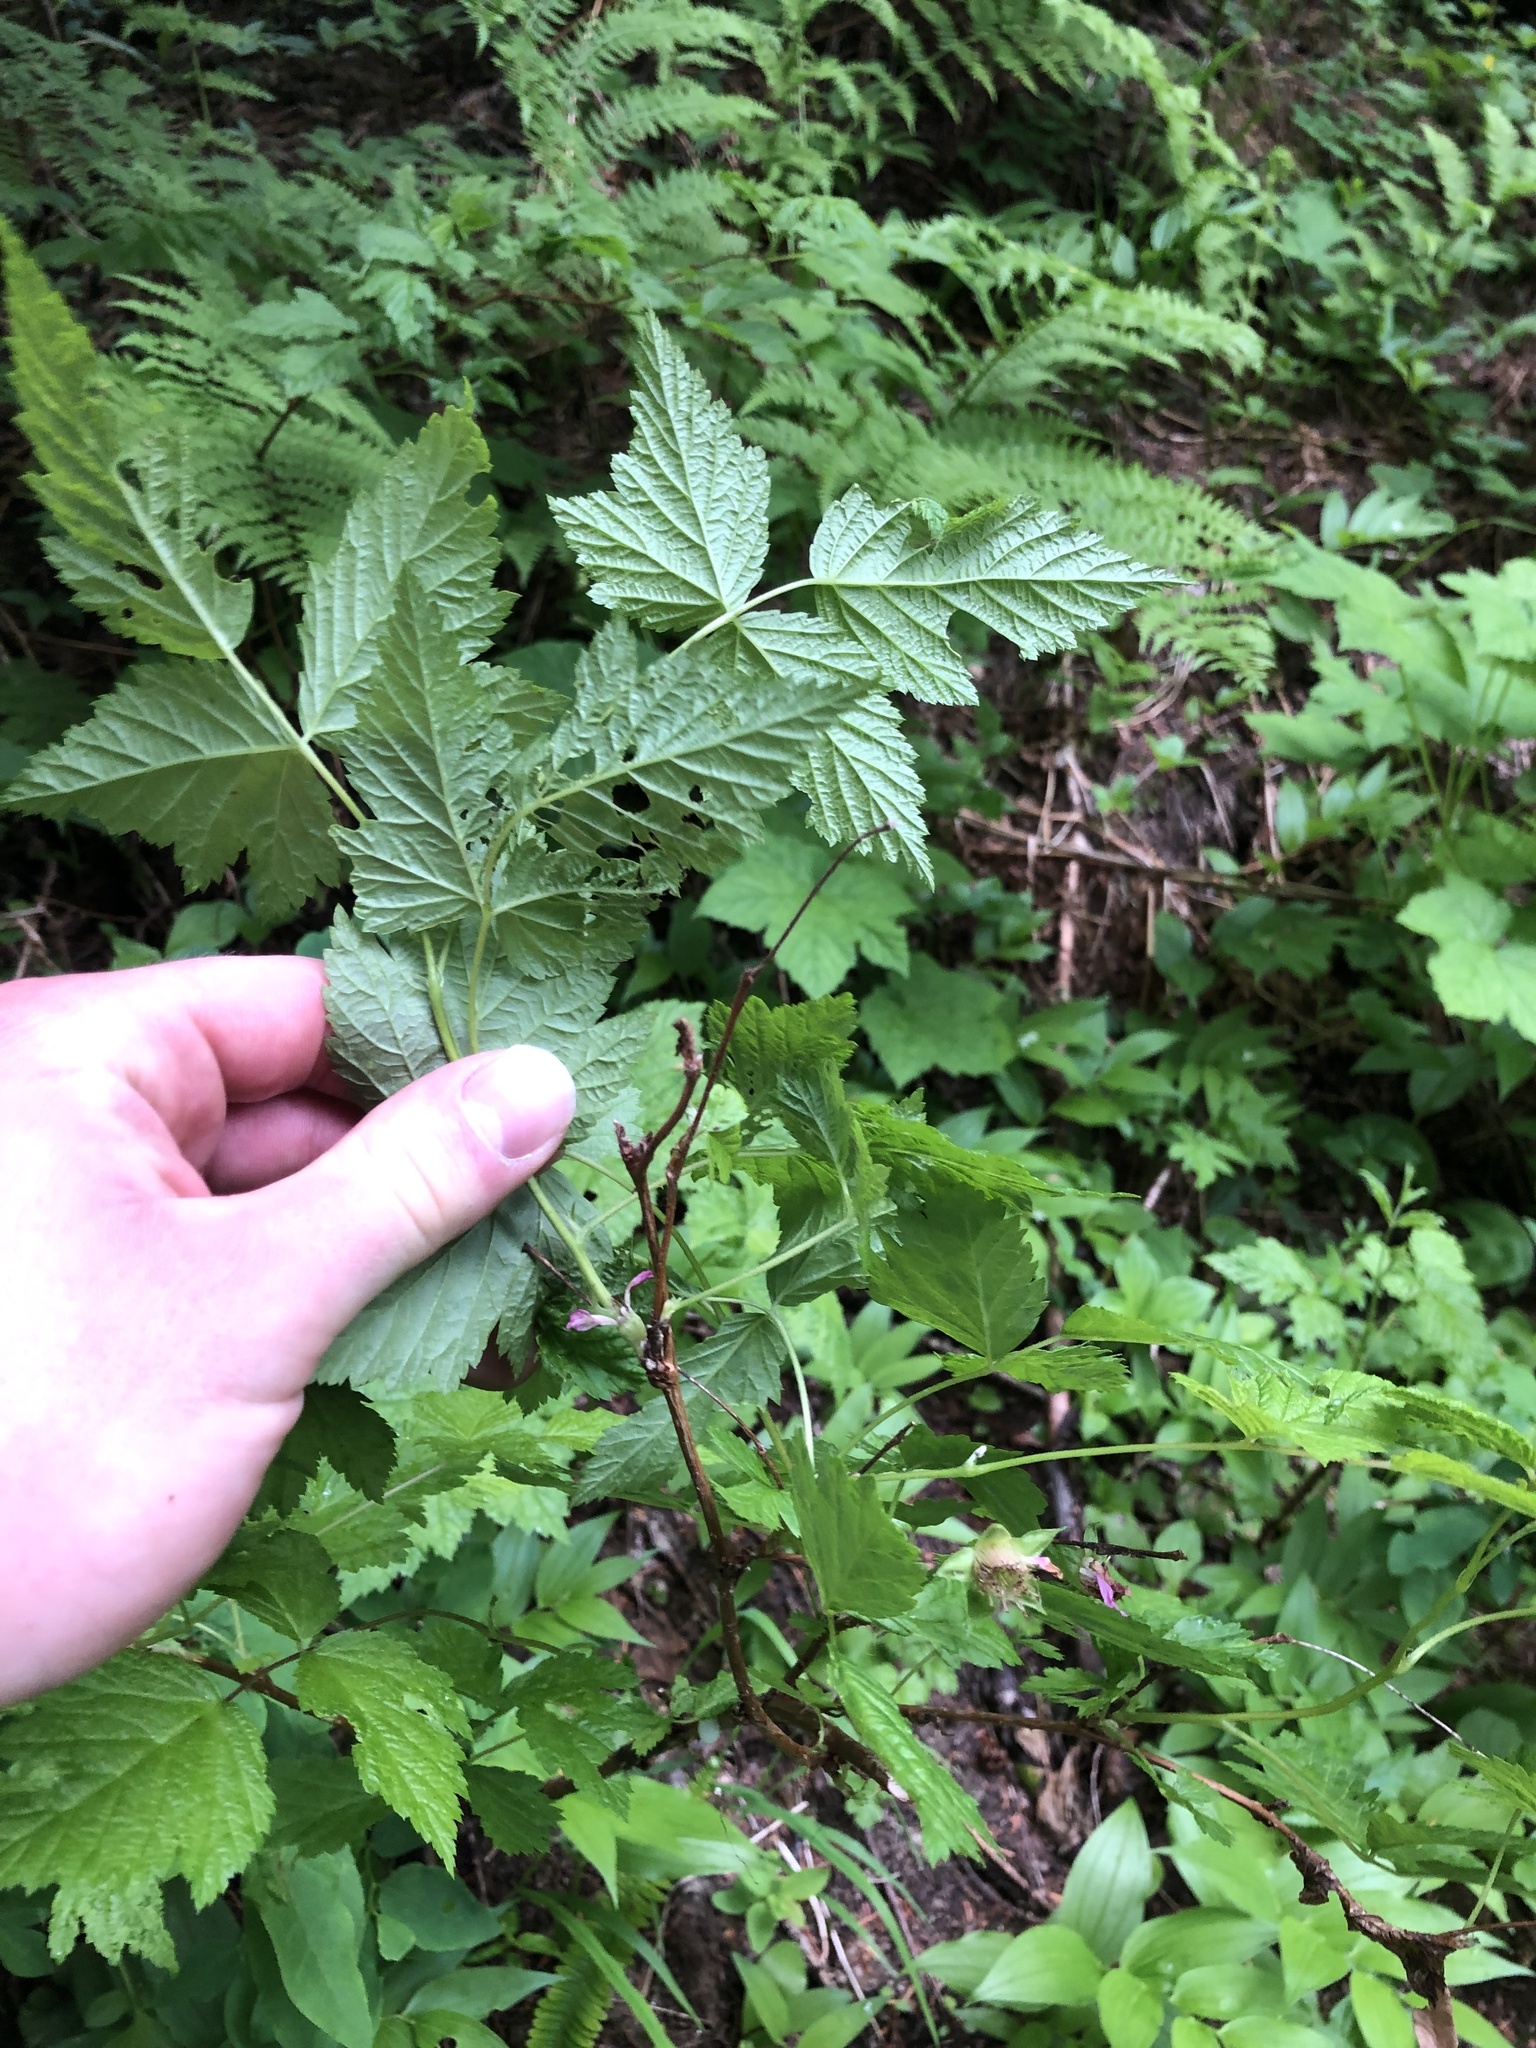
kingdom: Plantae
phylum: Tracheophyta
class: Magnoliopsida
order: Rosales
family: Rosaceae
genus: Rubus
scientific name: Rubus spectabilis
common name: Salmonberry
